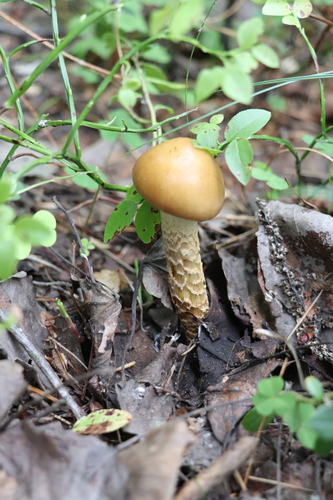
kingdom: Fungi
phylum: Basidiomycota
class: Agaricomycetes
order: Agaricales
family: Cortinariaceae
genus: Cortinarius
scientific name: Cortinarius trivialis
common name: Girdled webcap
